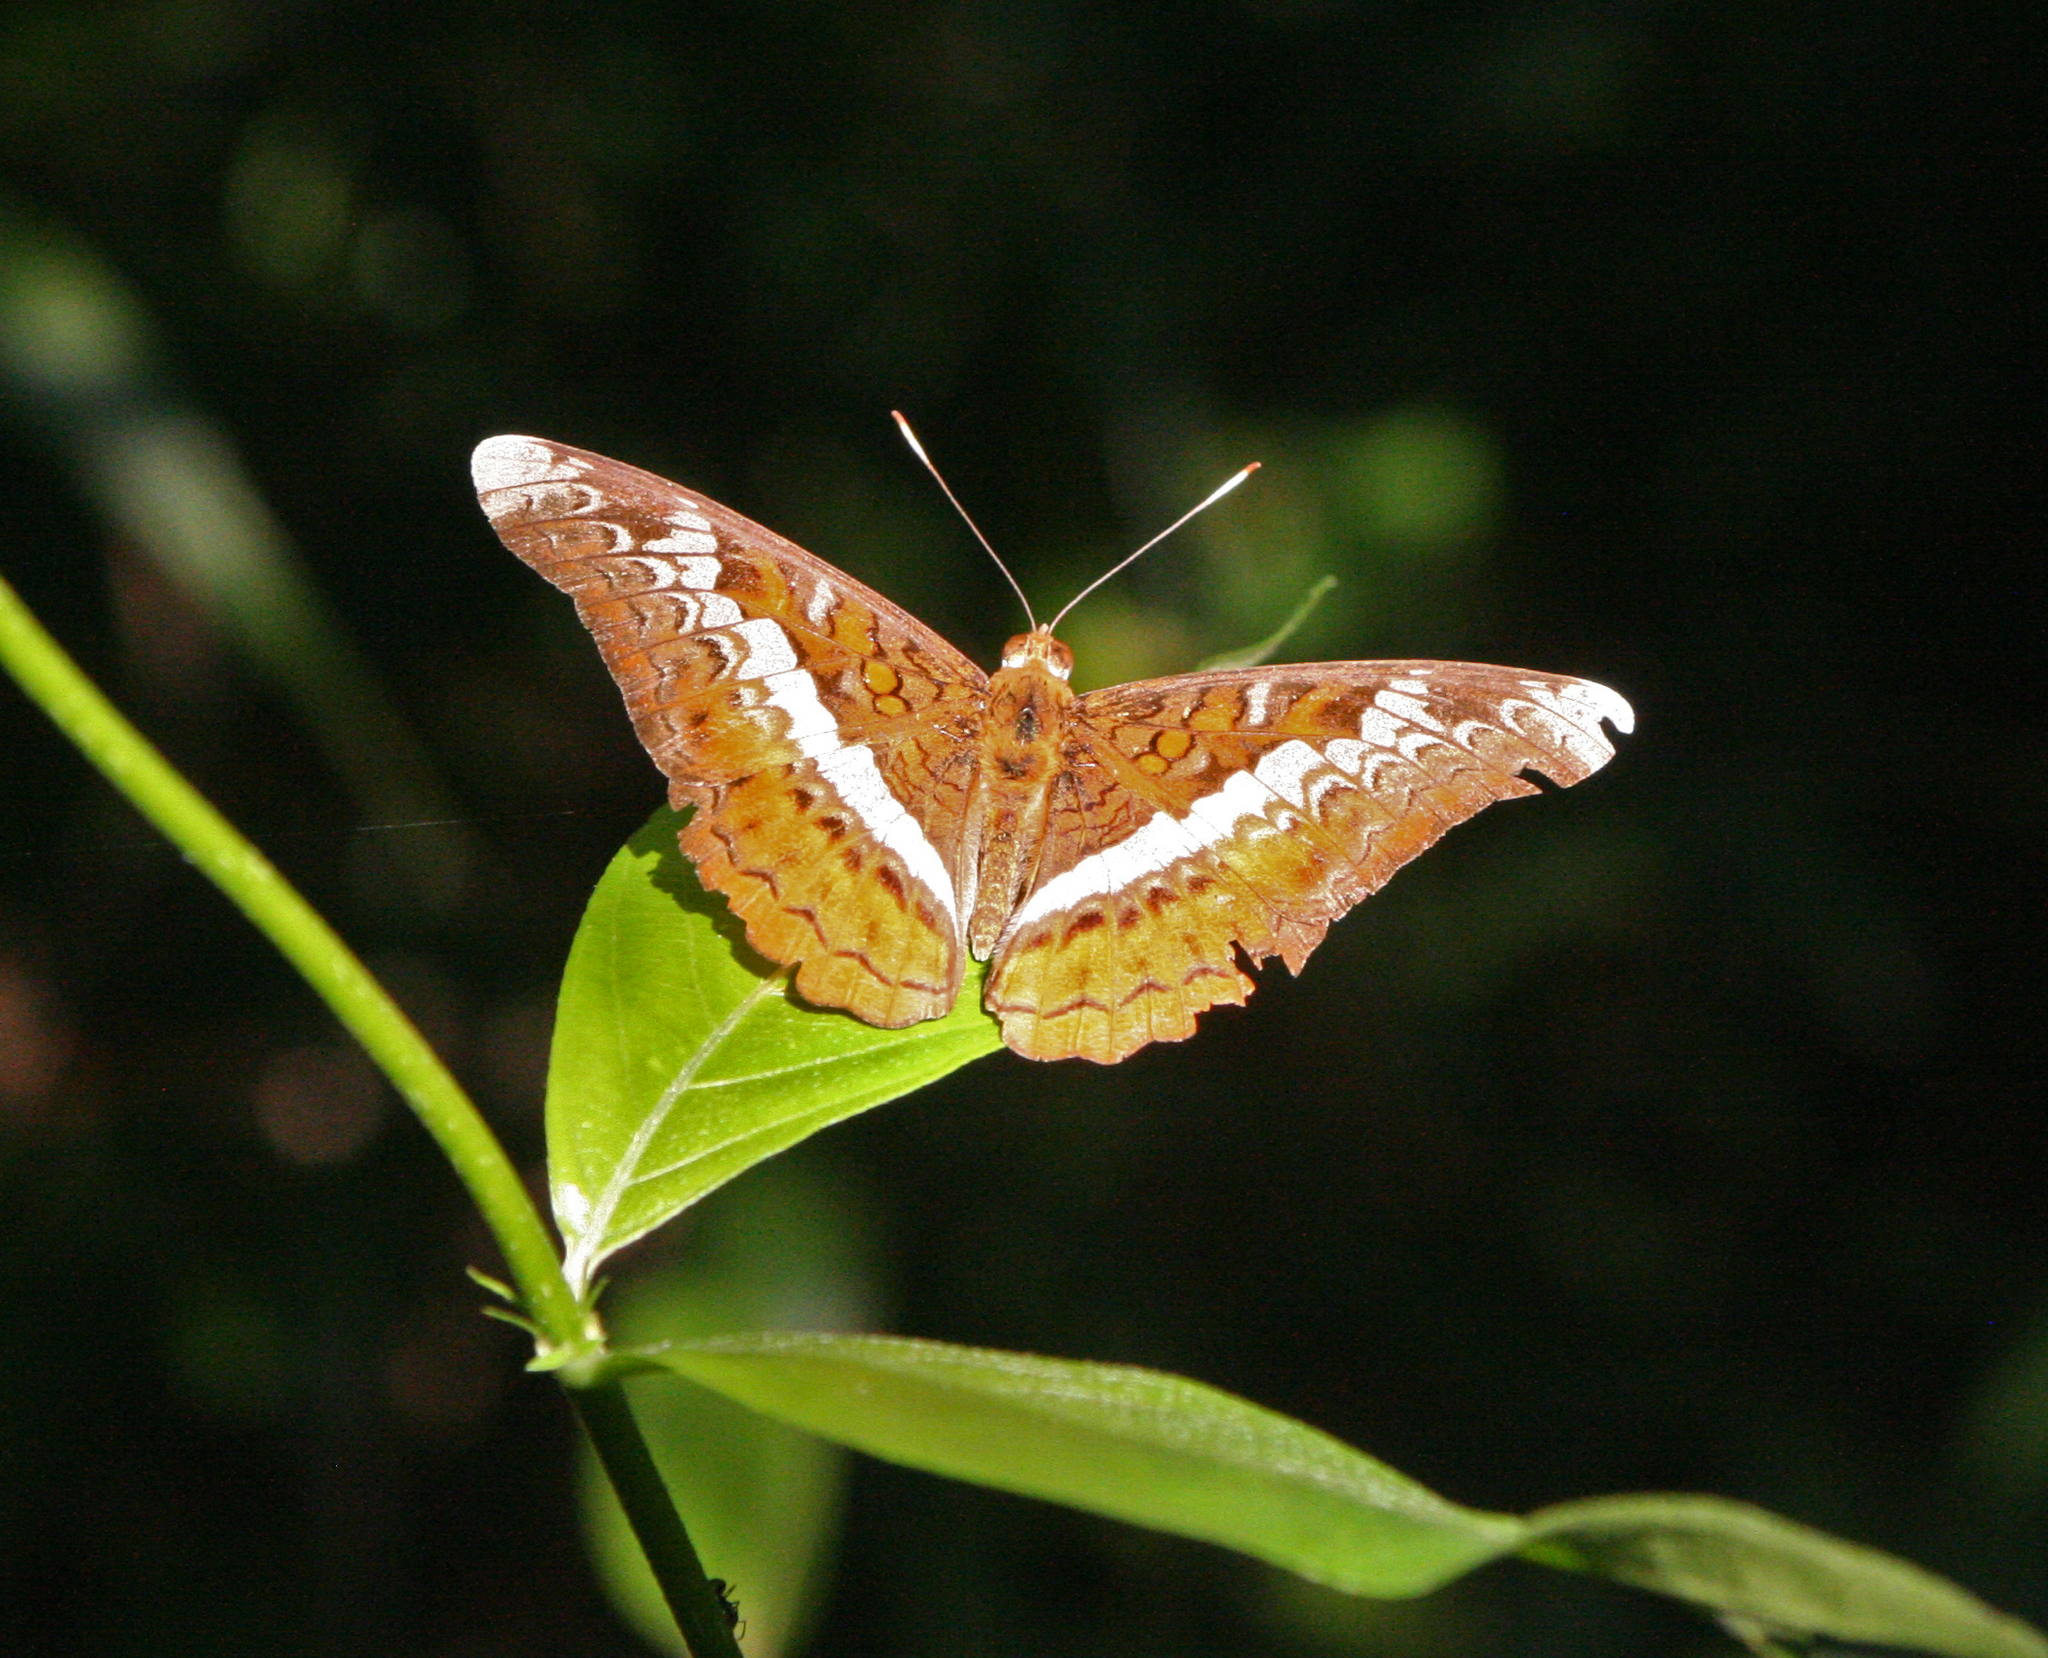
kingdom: Animalia
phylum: Arthropoda
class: Insecta
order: Lepidoptera
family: Nymphalidae
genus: Lebadea
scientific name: Lebadea martha
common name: Knight
